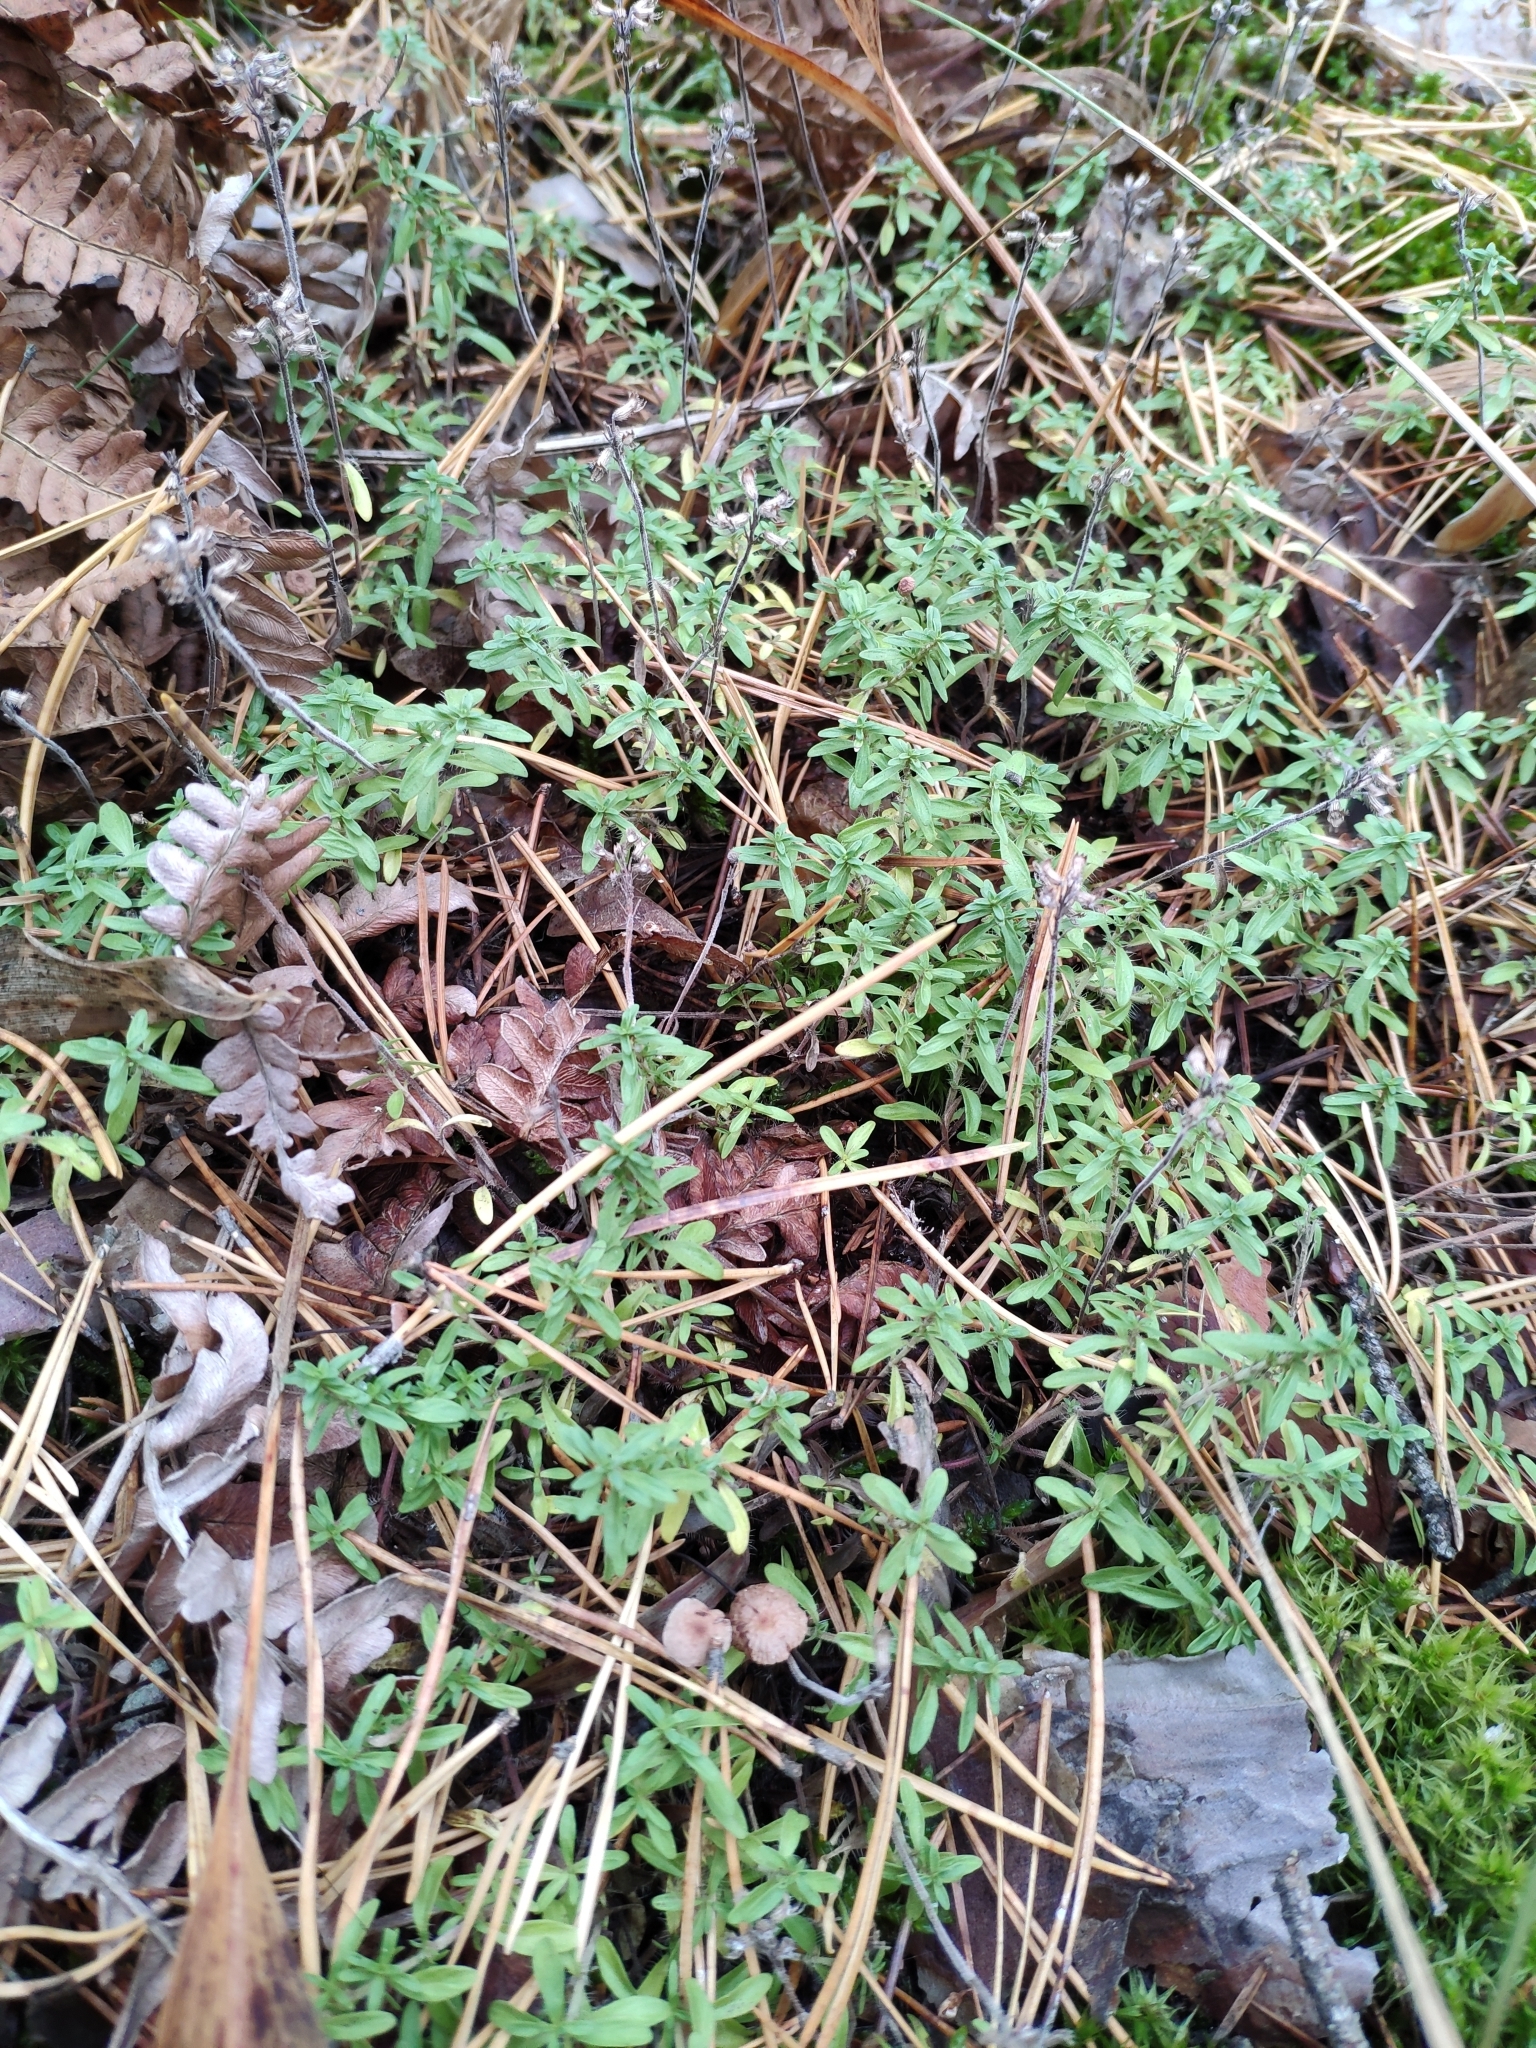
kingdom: Plantae
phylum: Tracheophyta
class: Magnoliopsida
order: Lamiales
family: Lamiaceae
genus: Thymus
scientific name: Thymus serpyllum
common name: Breckland thyme
